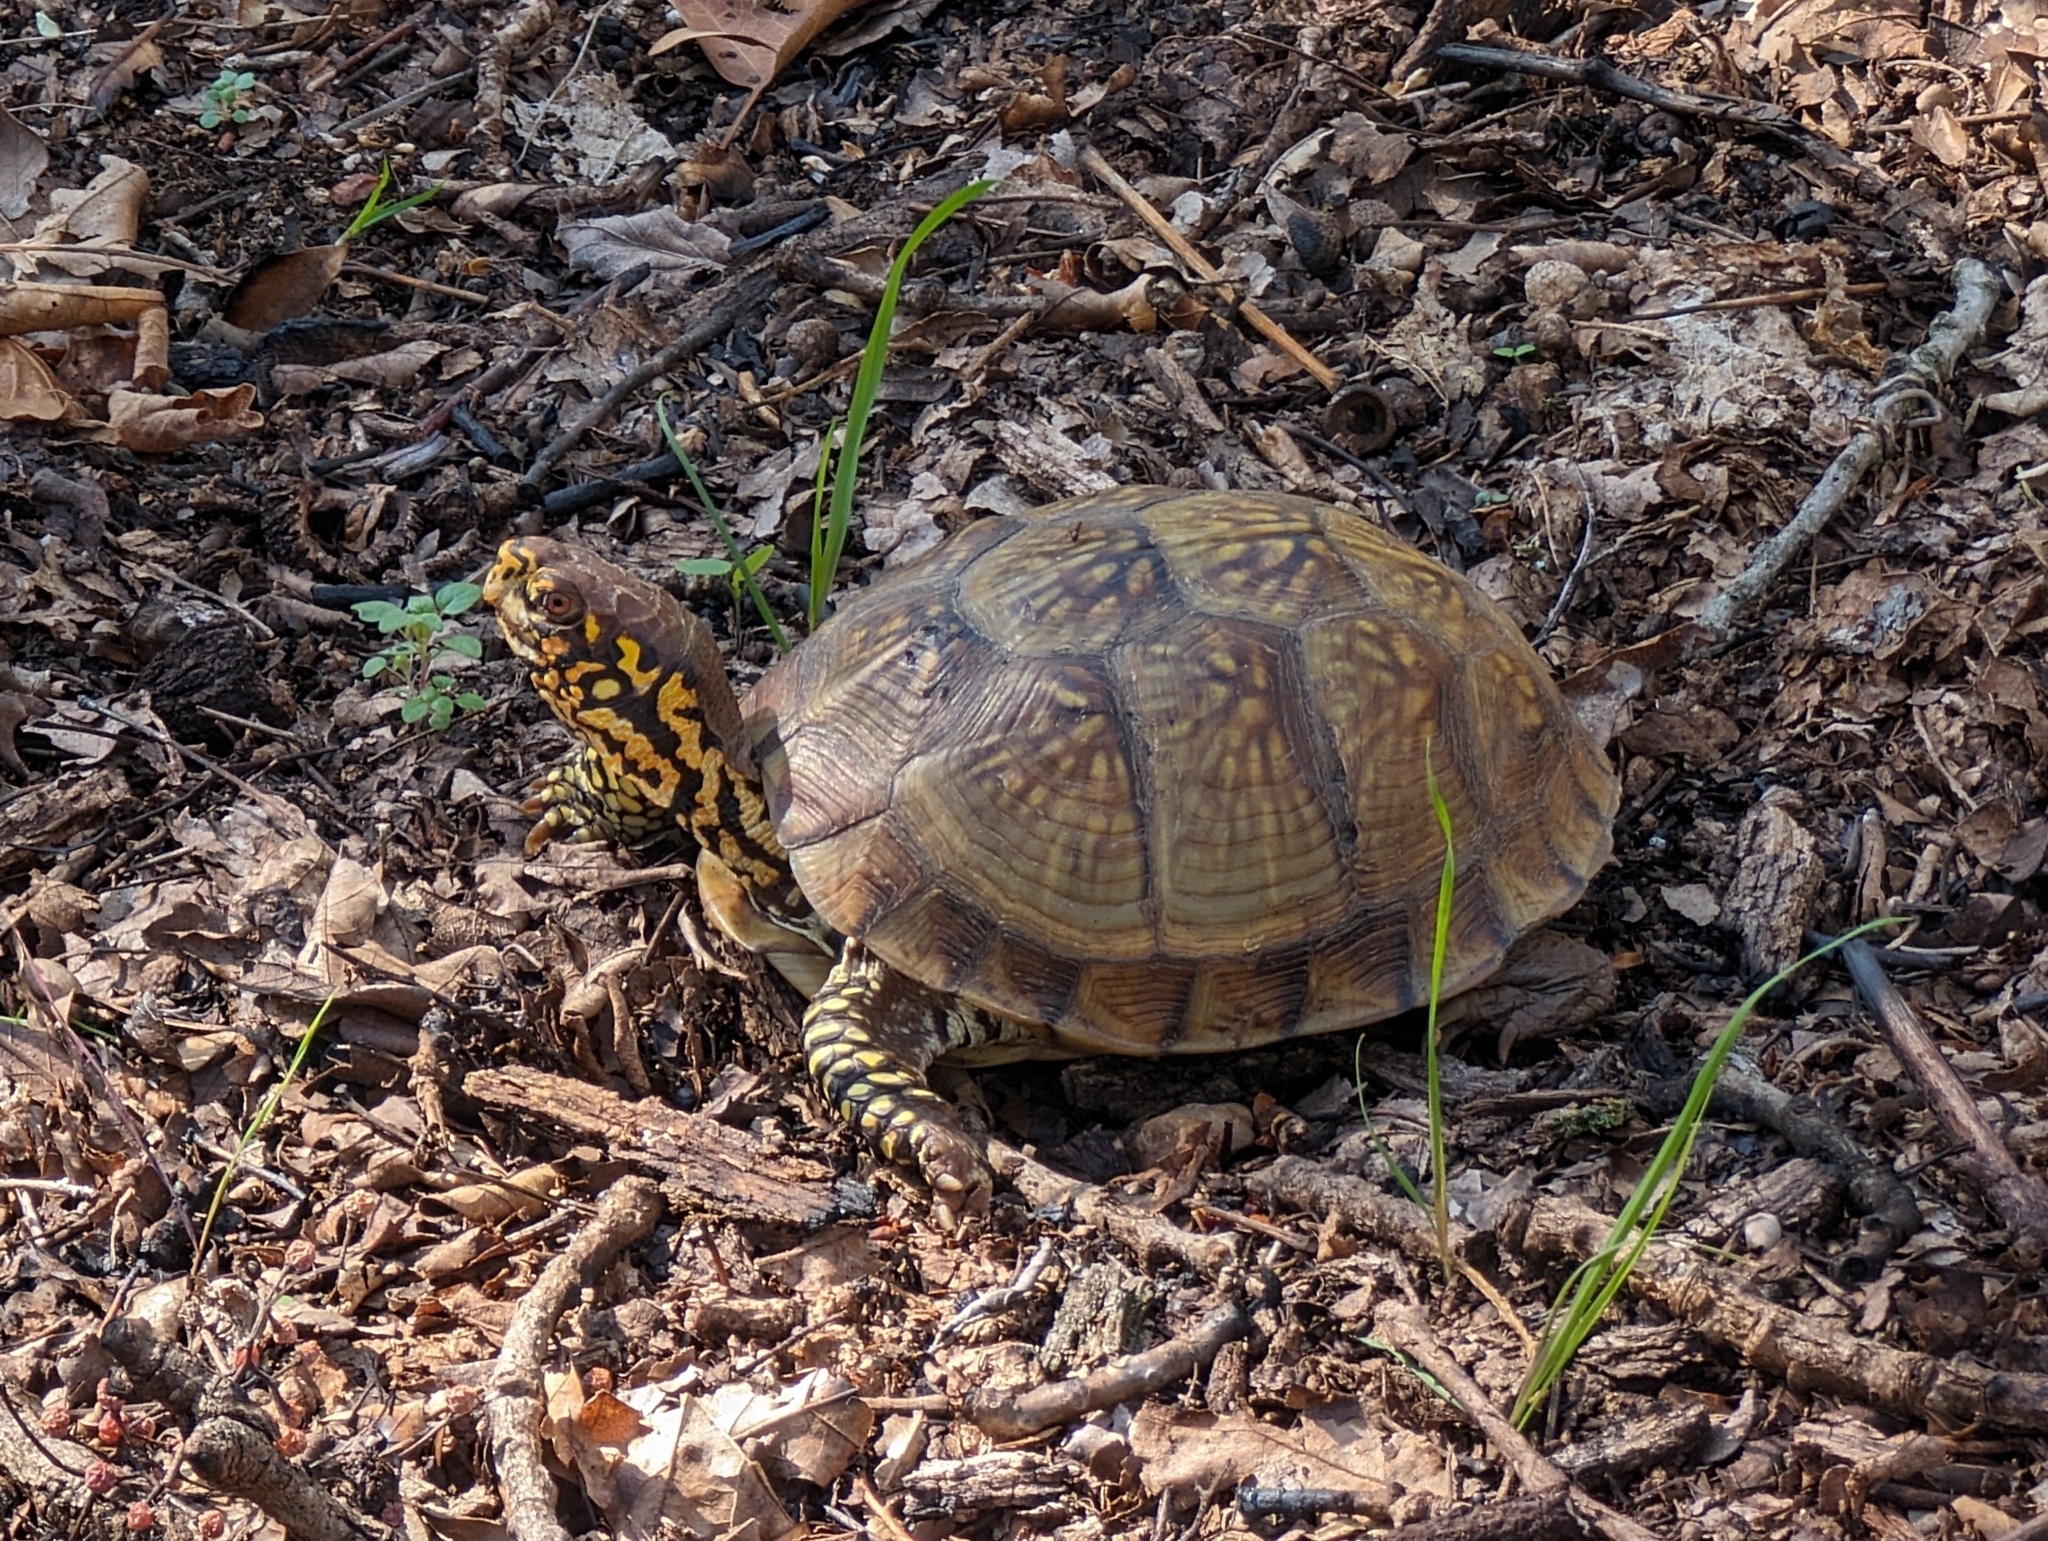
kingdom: Animalia
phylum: Chordata
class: Testudines
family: Emydidae
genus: Terrapene
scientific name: Terrapene carolina
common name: Common box turtle
